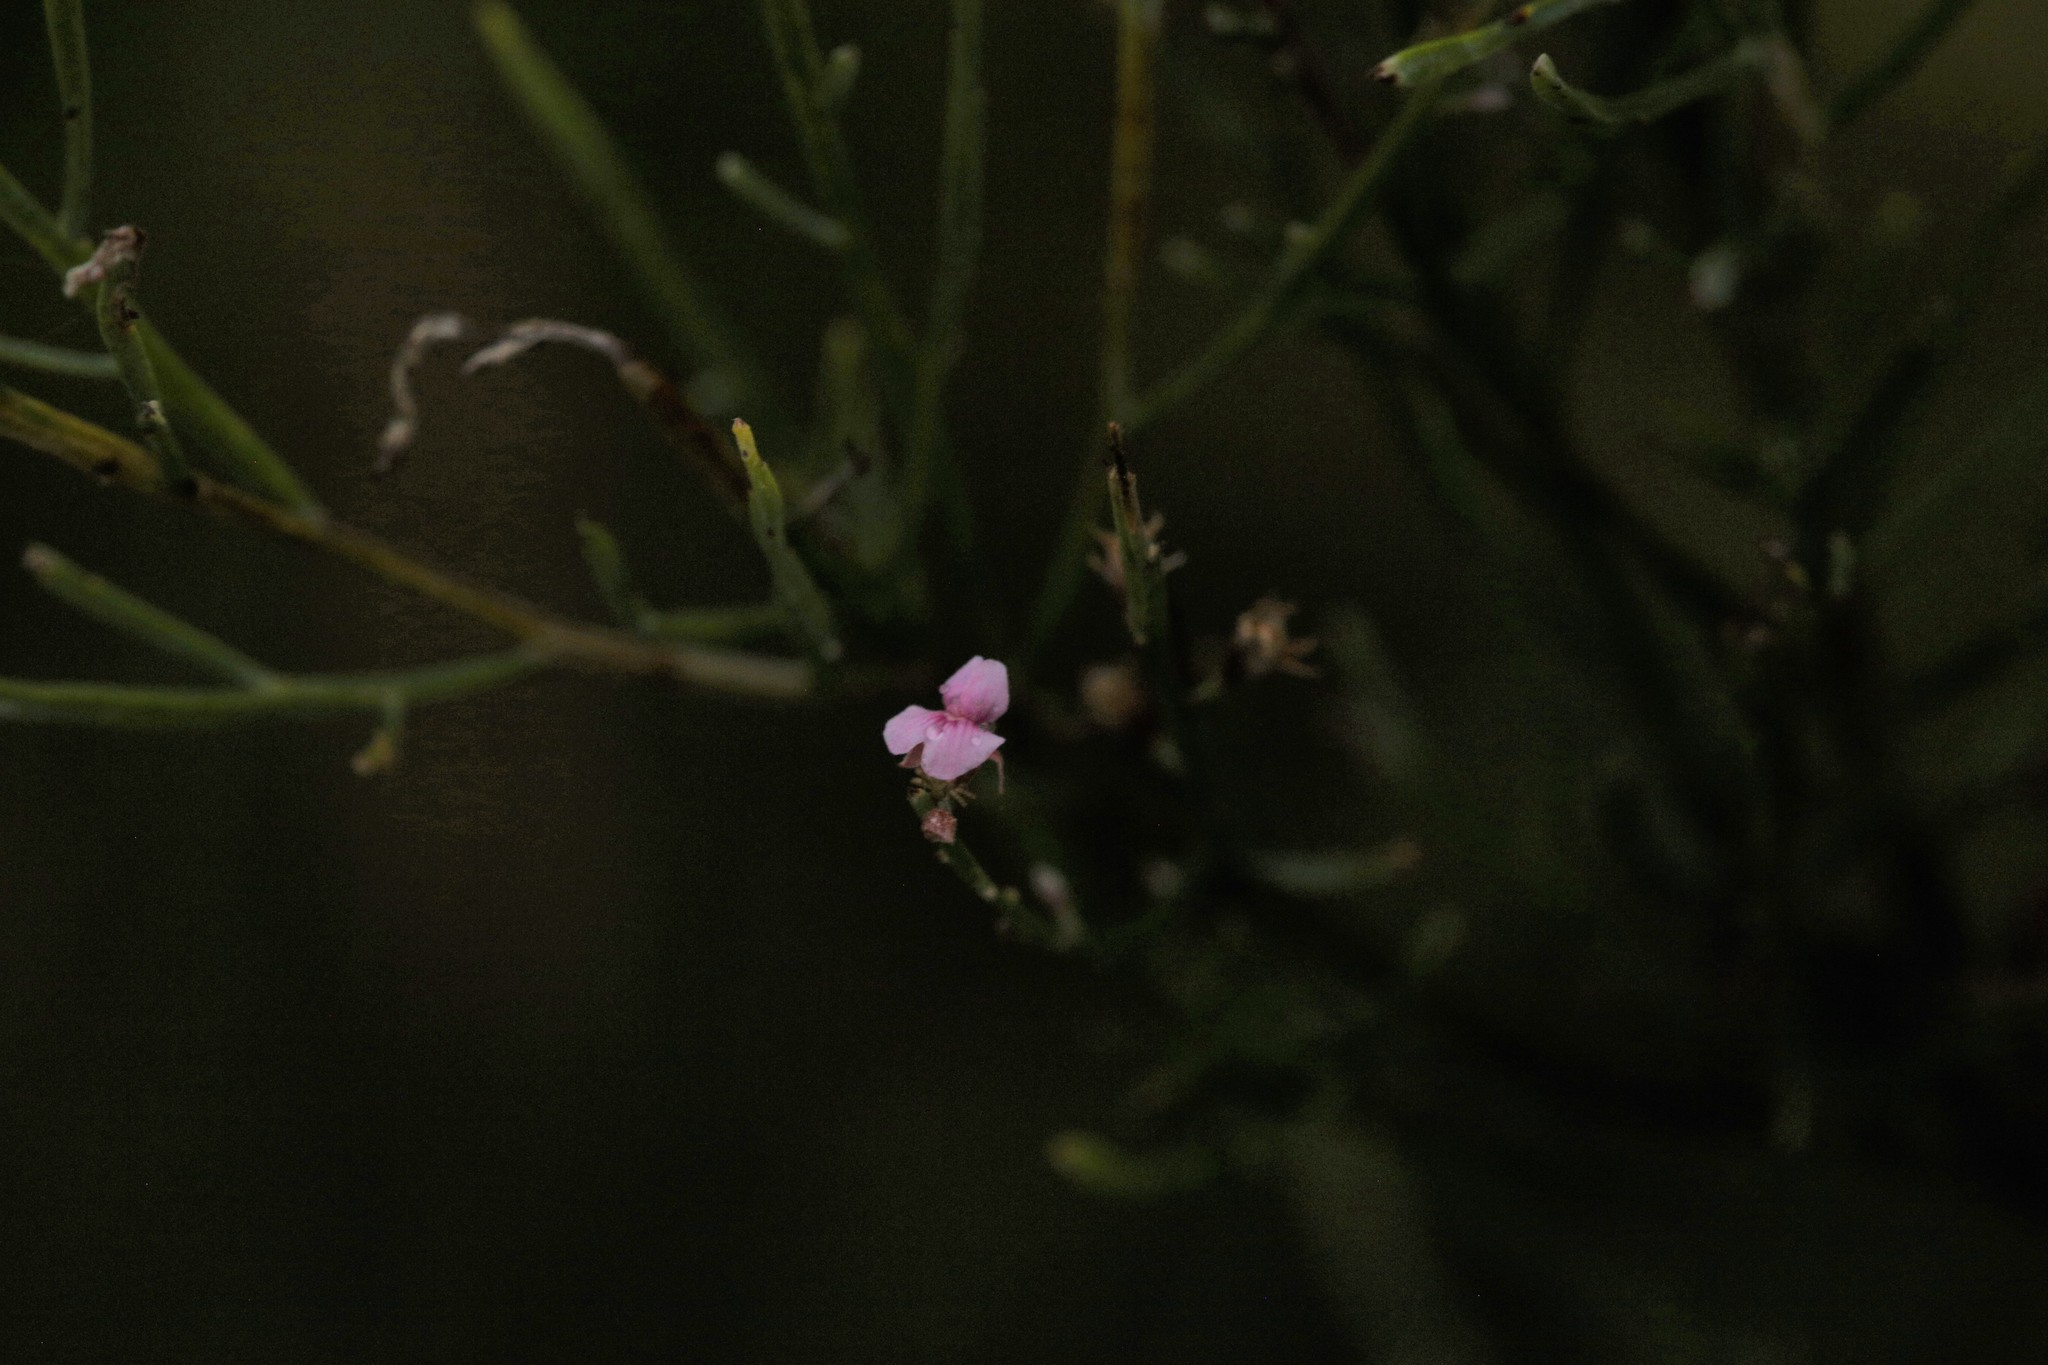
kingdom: Plantae
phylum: Tracheophyta
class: Magnoliopsida
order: Fabales
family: Fabaceae
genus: Jacksonia
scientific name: Jacksonia thesioides
